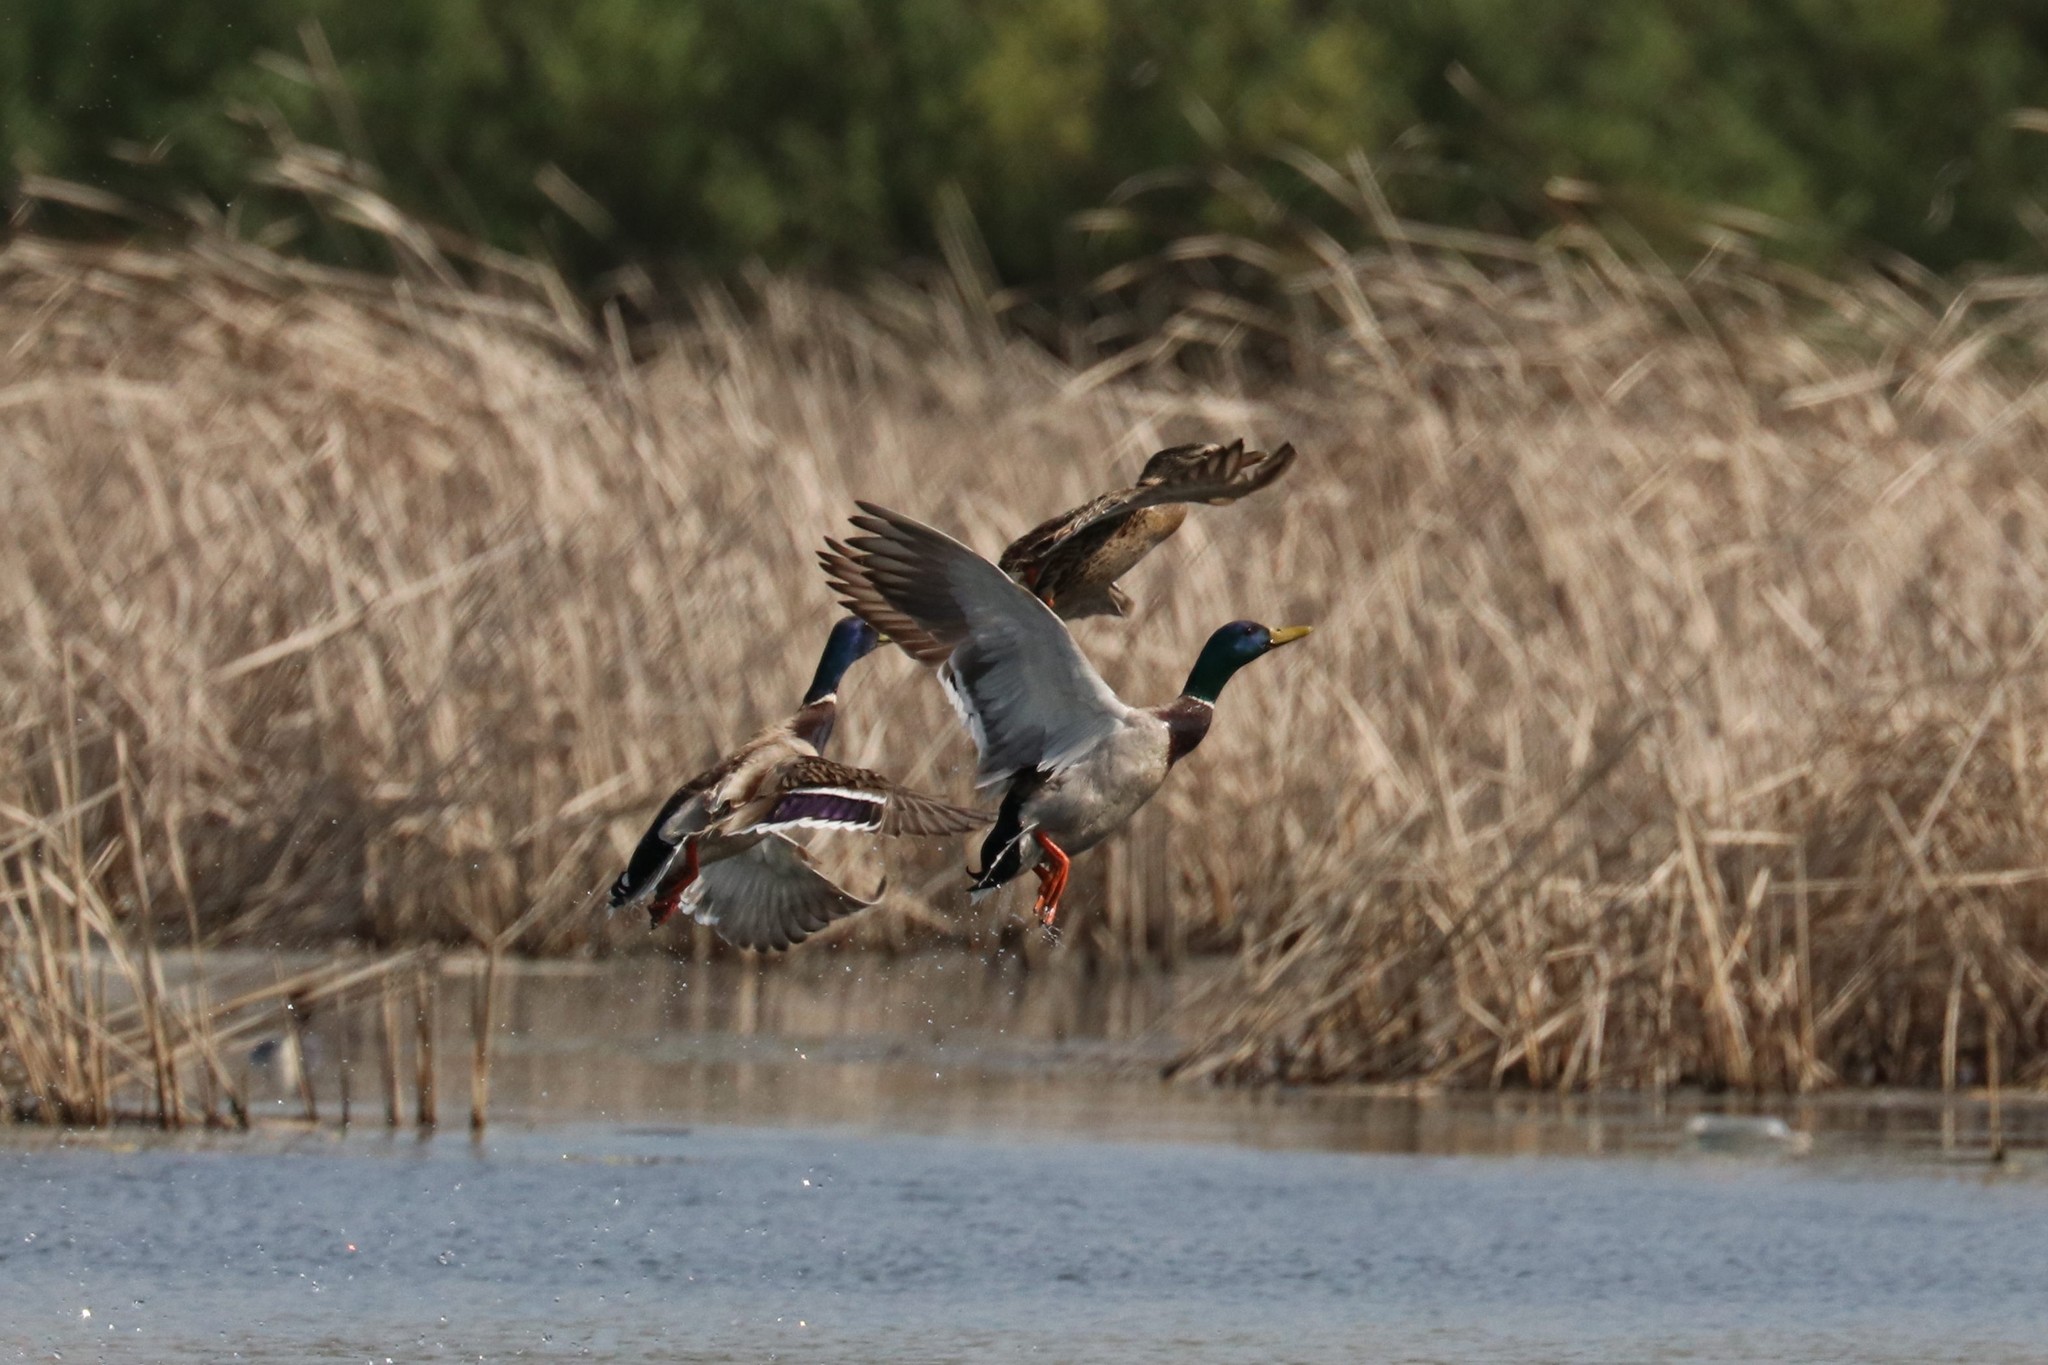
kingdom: Animalia
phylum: Chordata
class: Aves
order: Anseriformes
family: Anatidae
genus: Anas
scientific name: Anas platyrhynchos
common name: Mallard
